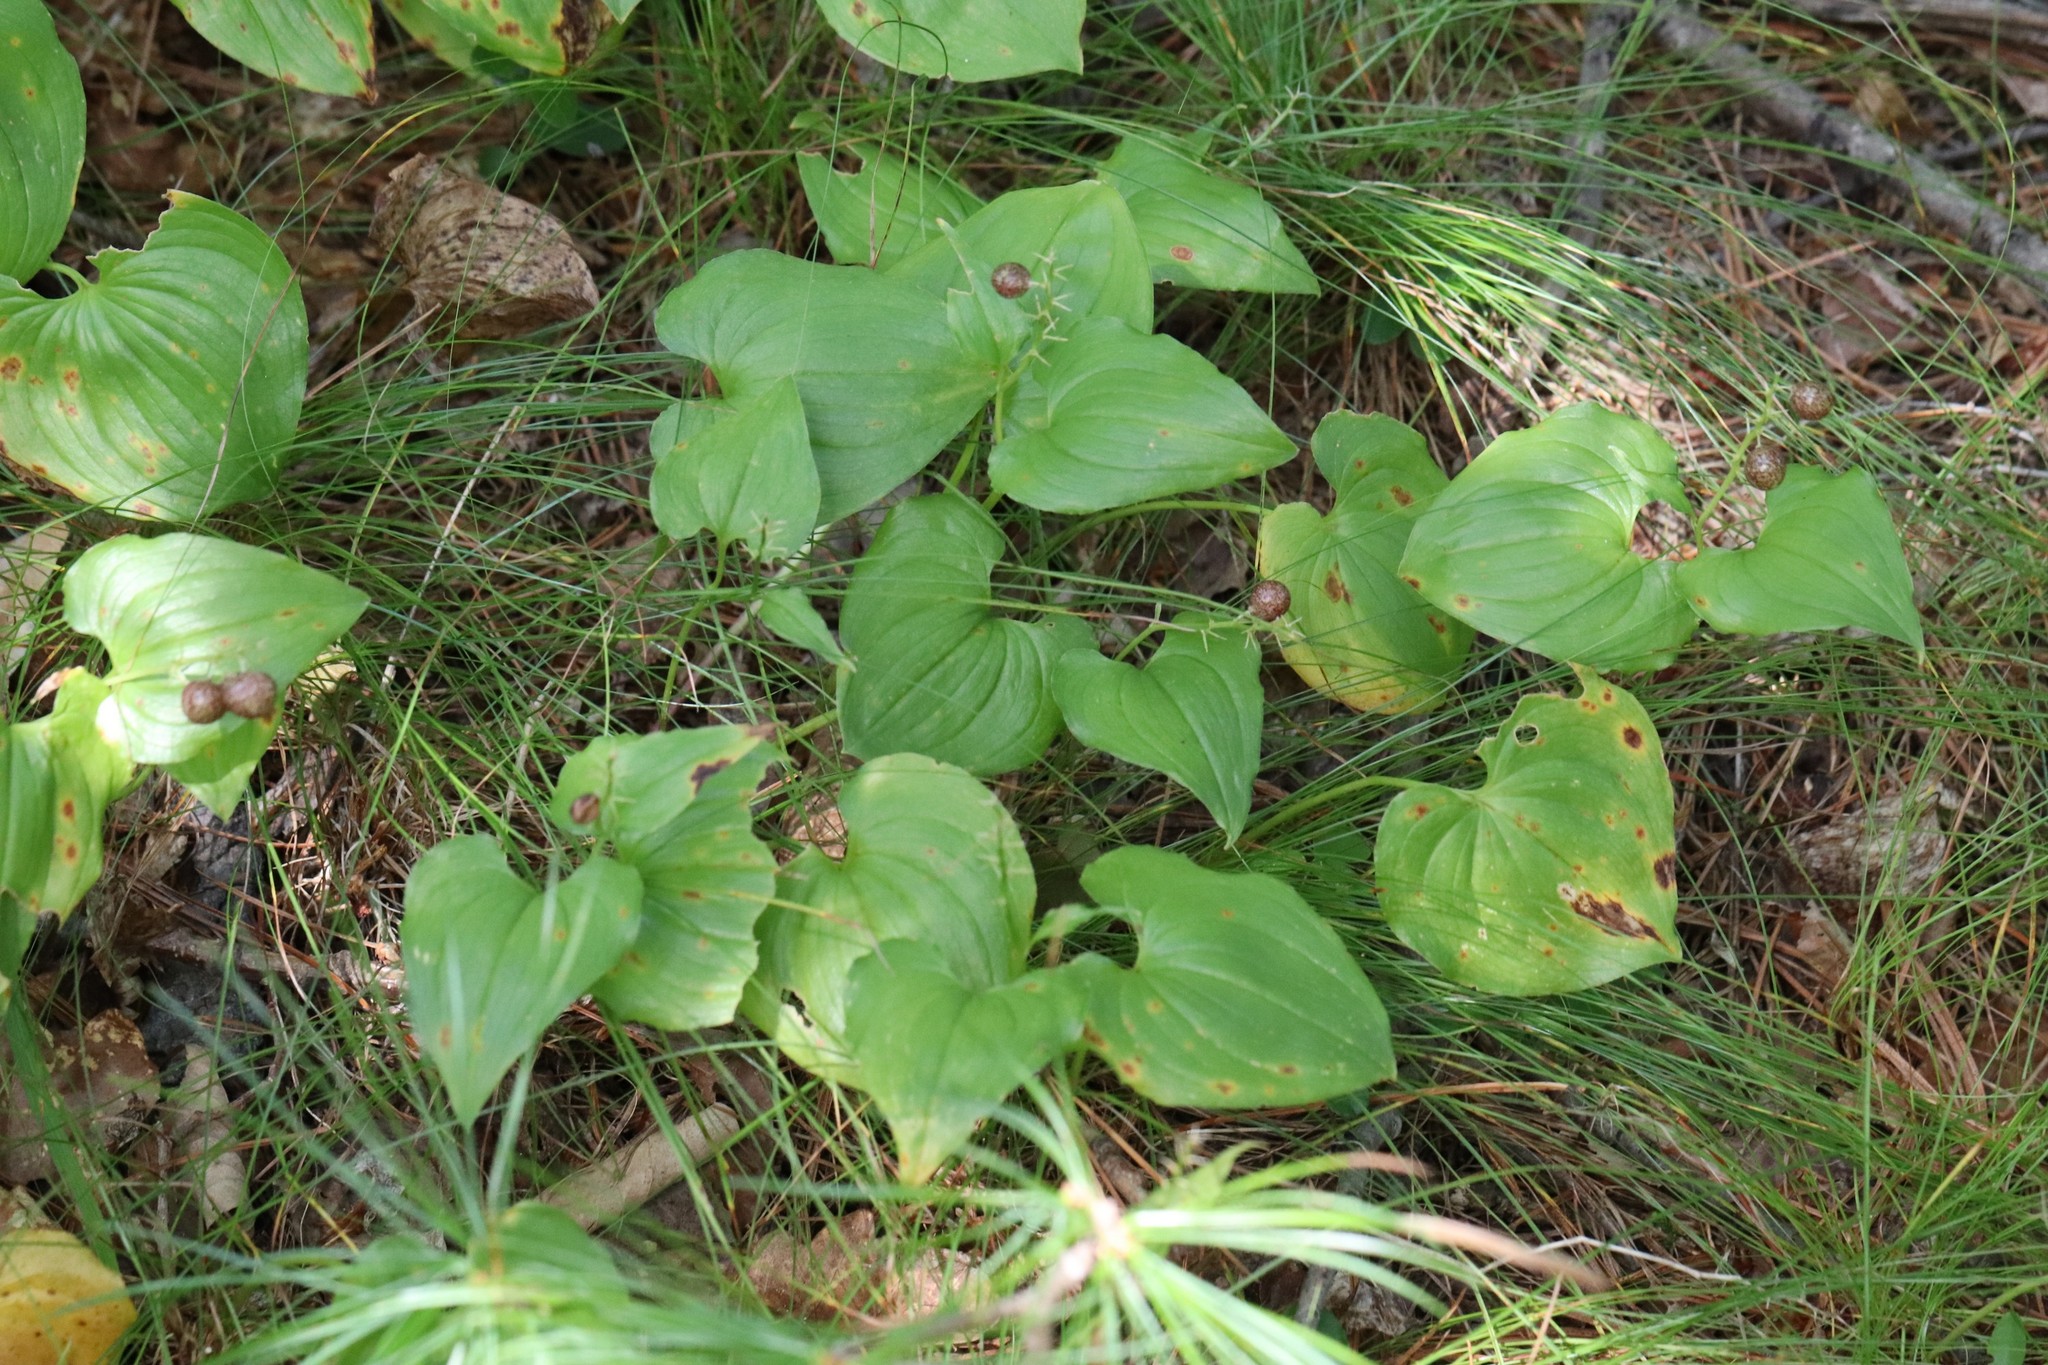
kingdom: Plantae
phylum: Tracheophyta
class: Liliopsida
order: Asparagales
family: Asparagaceae
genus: Maianthemum
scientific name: Maianthemum bifolium
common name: May lily
